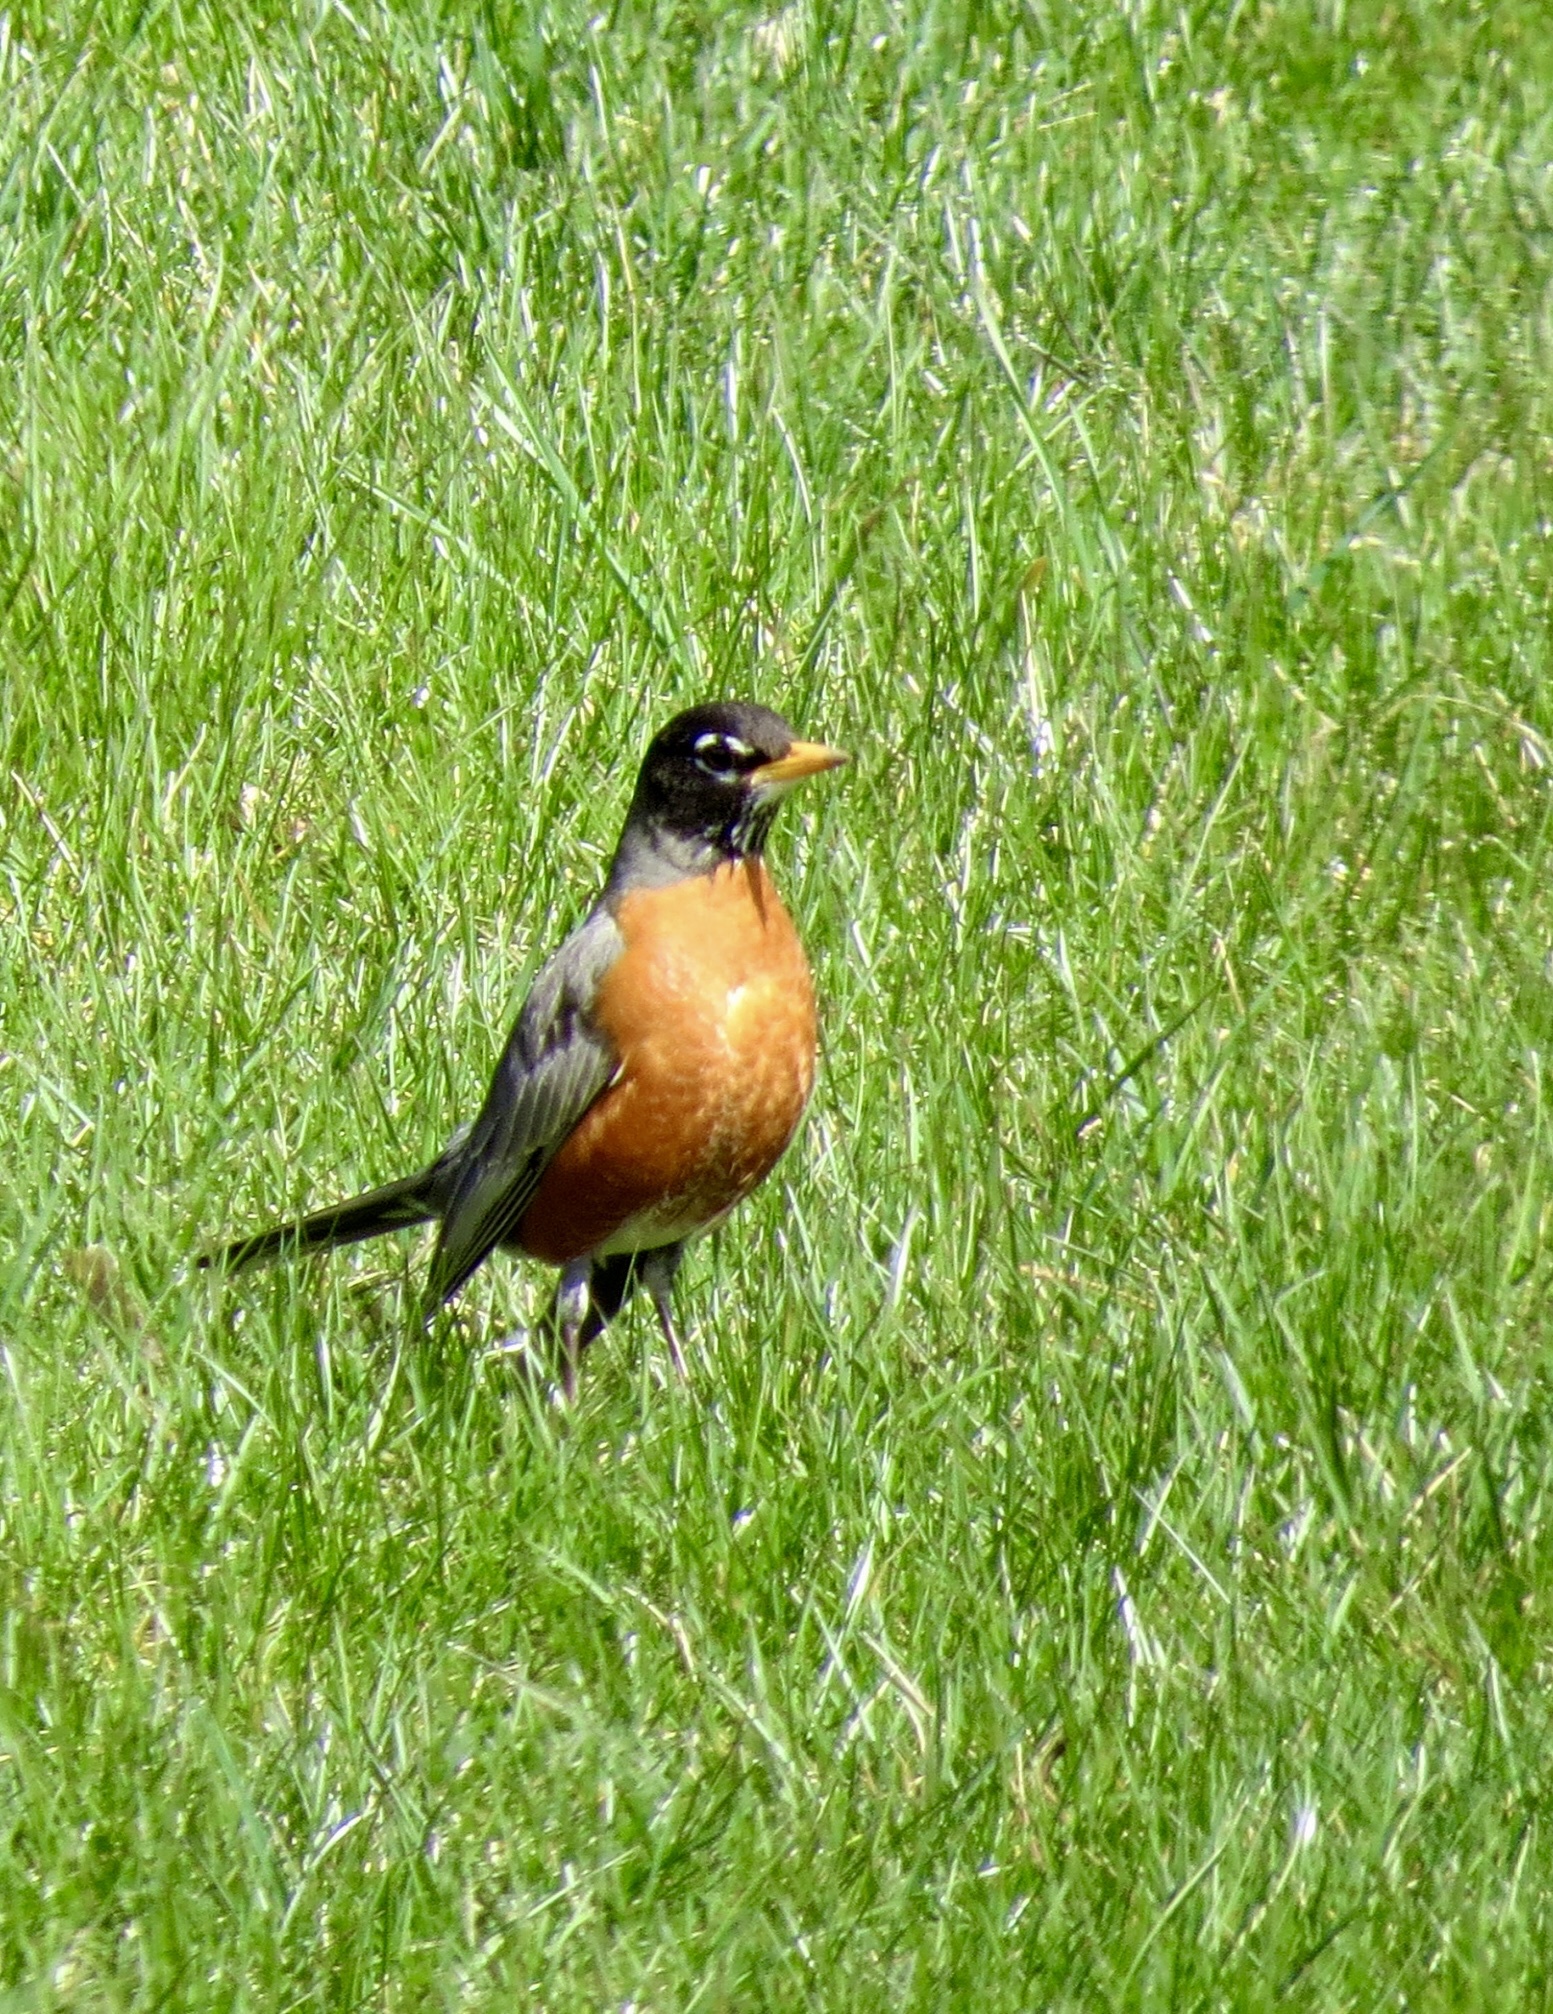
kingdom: Animalia
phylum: Chordata
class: Aves
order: Passeriformes
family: Turdidae
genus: Turdus
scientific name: Turdus migratorius
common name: American robin
